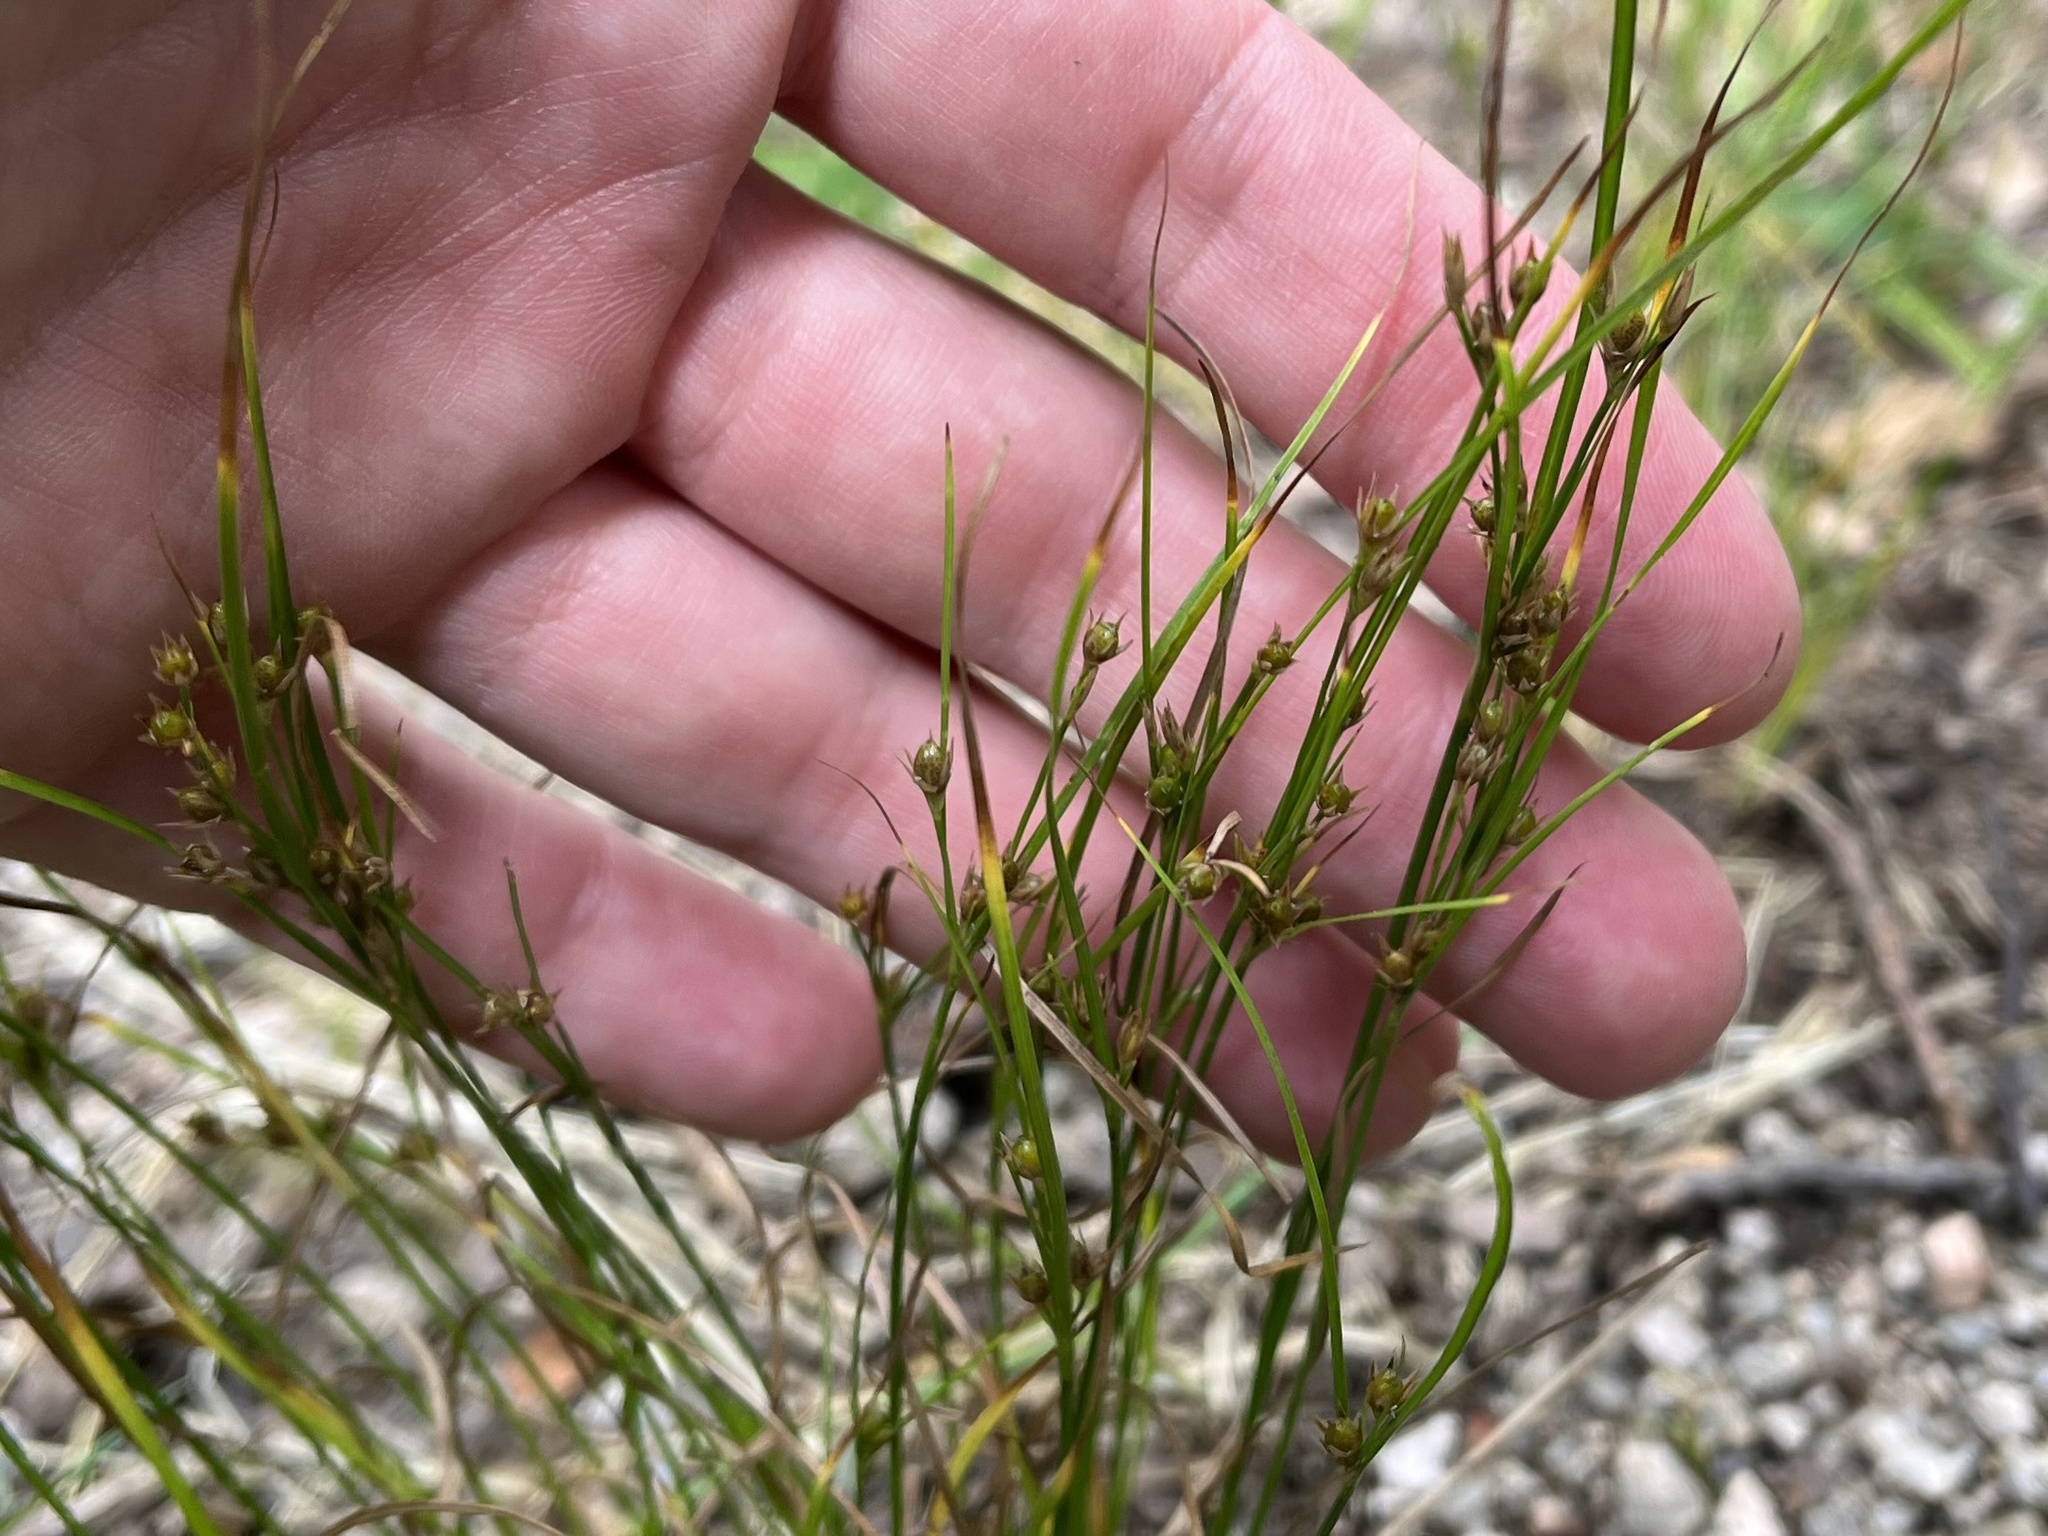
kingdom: Plantae
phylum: Tracheophyta
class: Liliopsida
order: Poales
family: Juncaceae
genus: Juncus
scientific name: Juncus tenuis
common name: Slender rush
